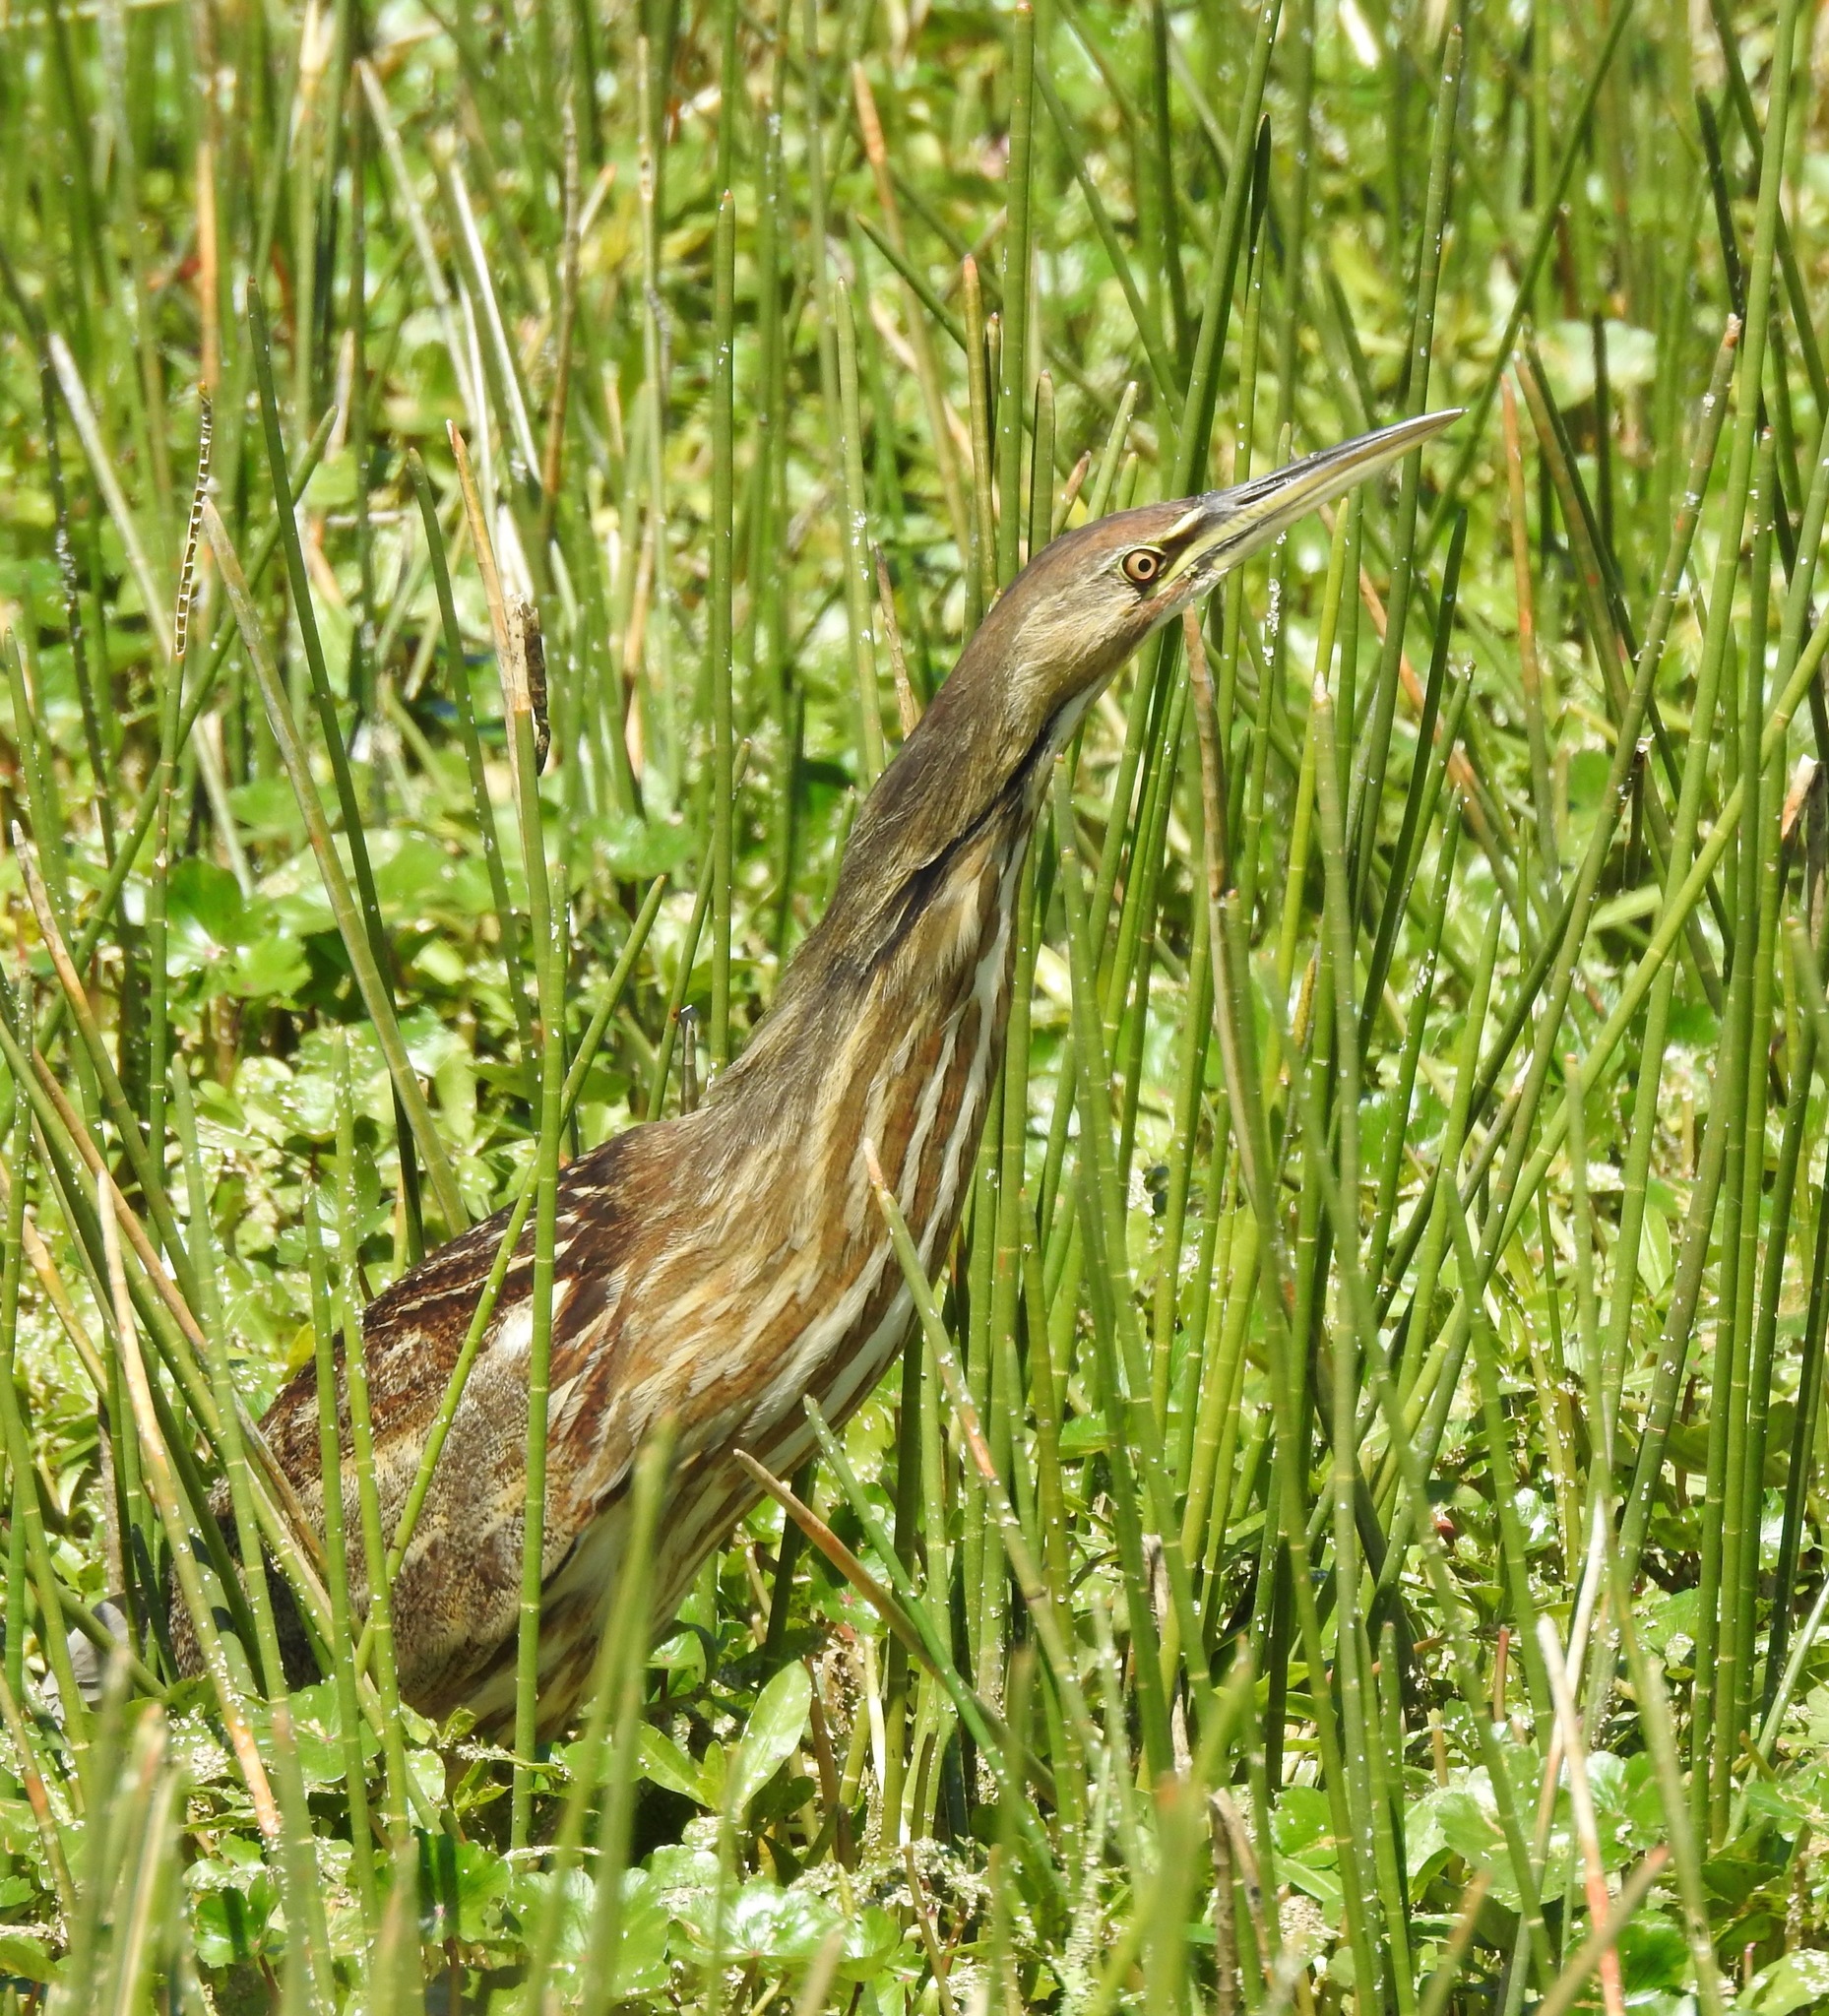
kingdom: Animalia
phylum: Chordata
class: Aves
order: Pelecaniformes
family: Ardeidae
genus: Botaurus
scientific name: Botaurus lentiginosus
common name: American bittern
